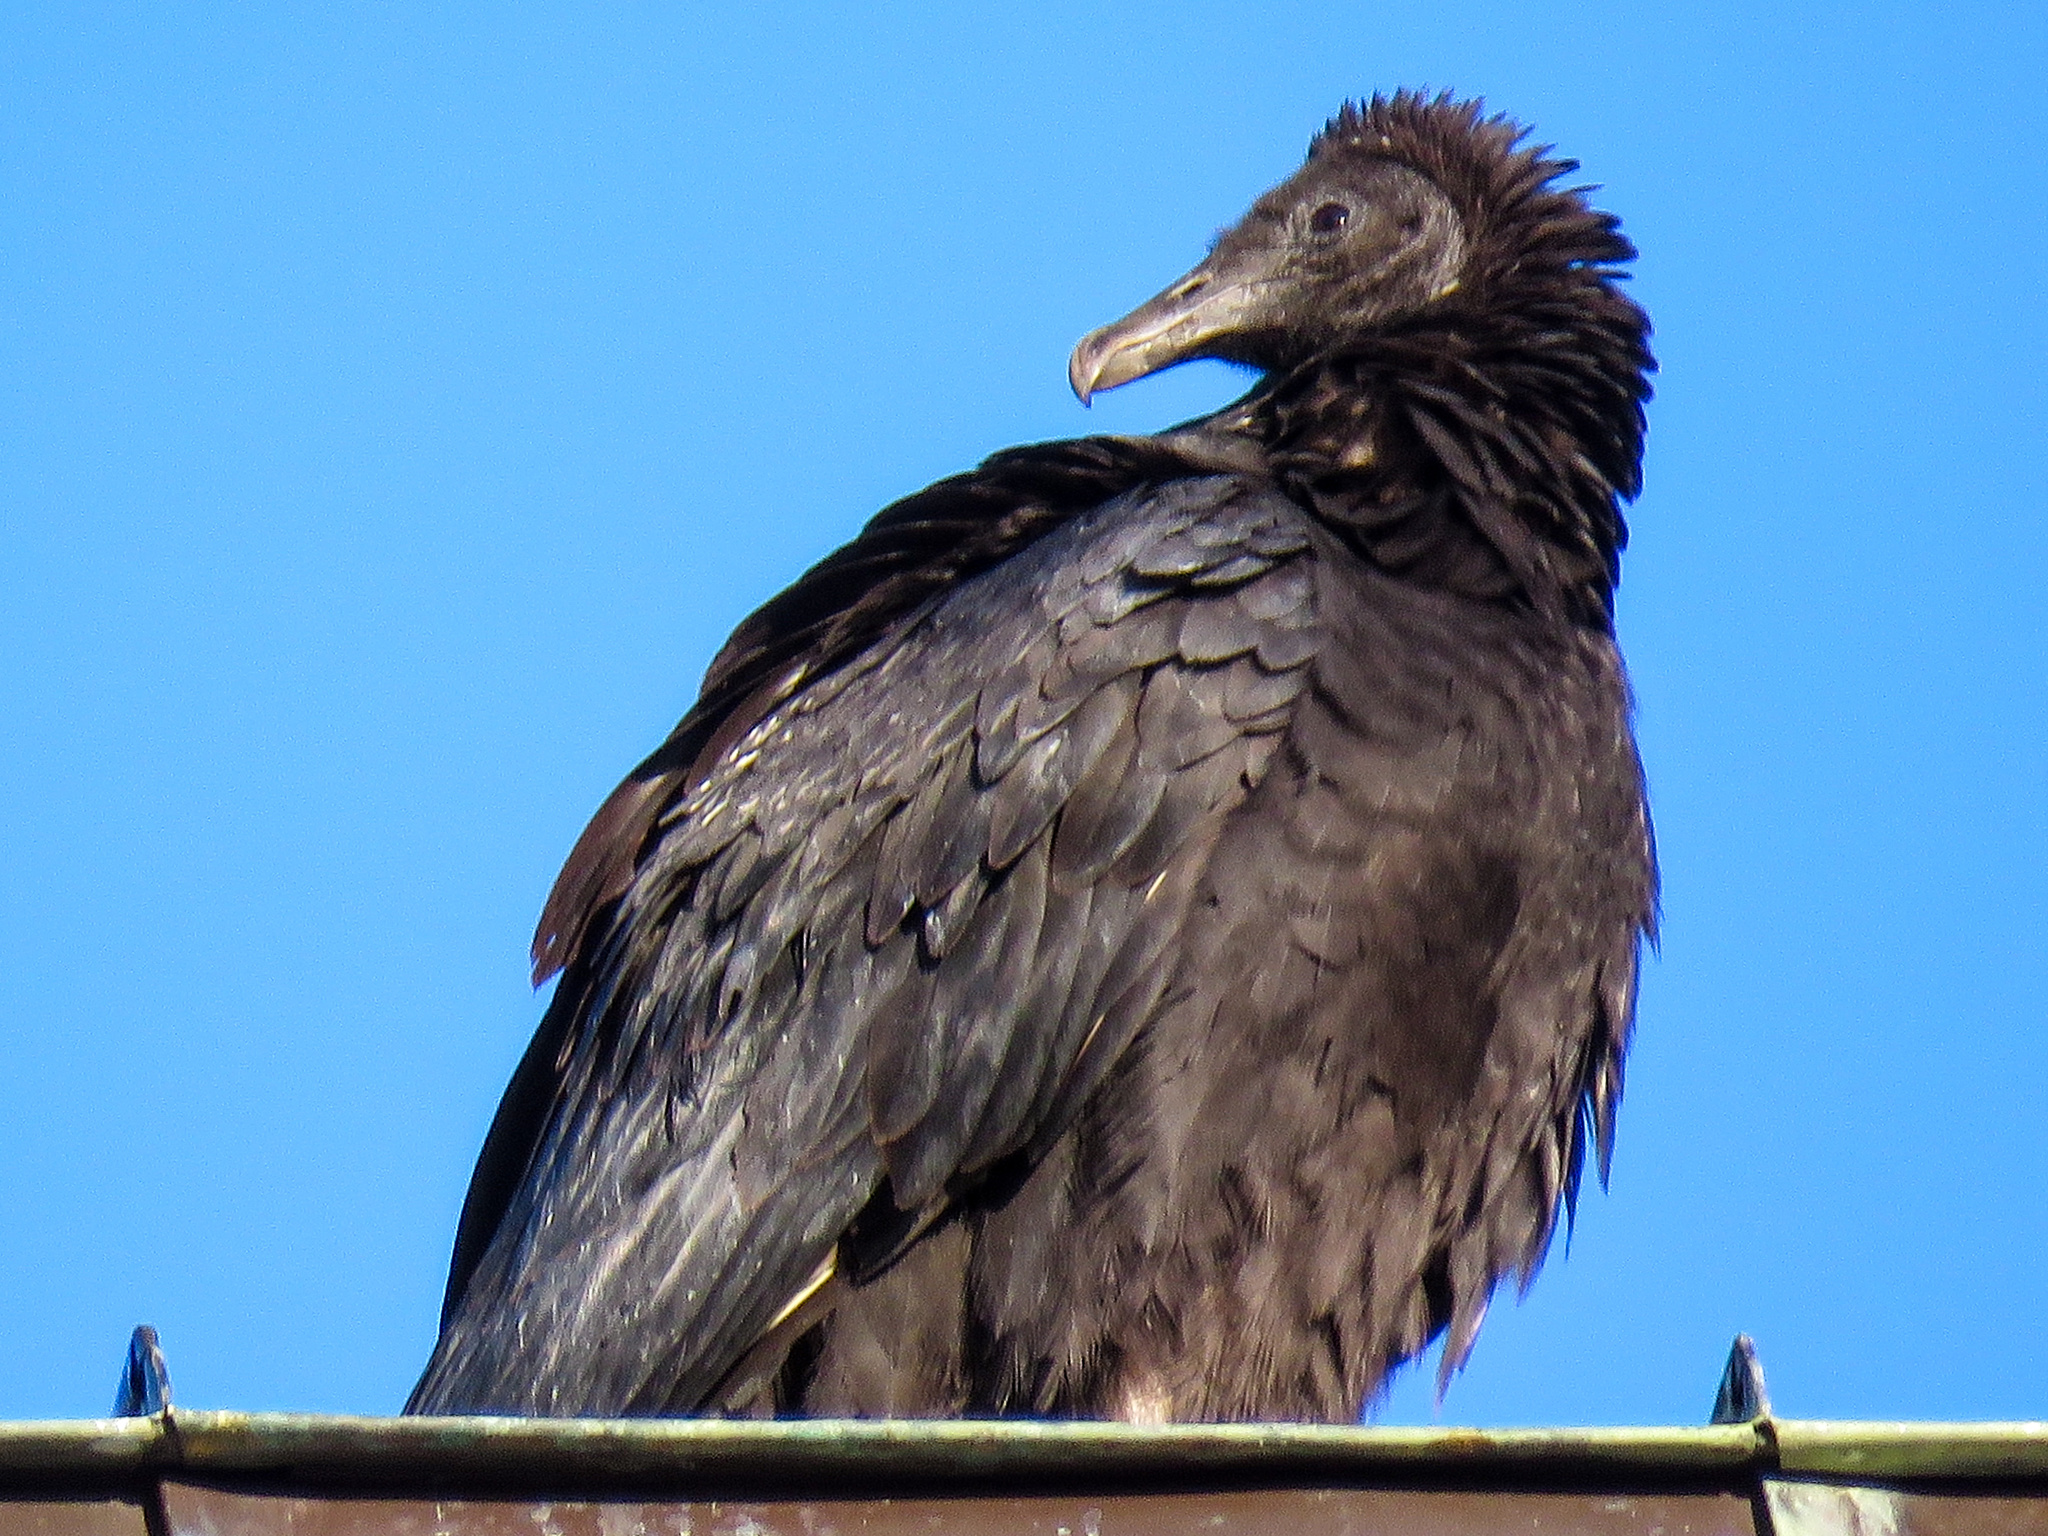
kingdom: Animalia
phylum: Chordata
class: Aves
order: Accipitriformes
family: Cathartidae
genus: Coragyps
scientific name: Coragyps atratus
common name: Black vulture
